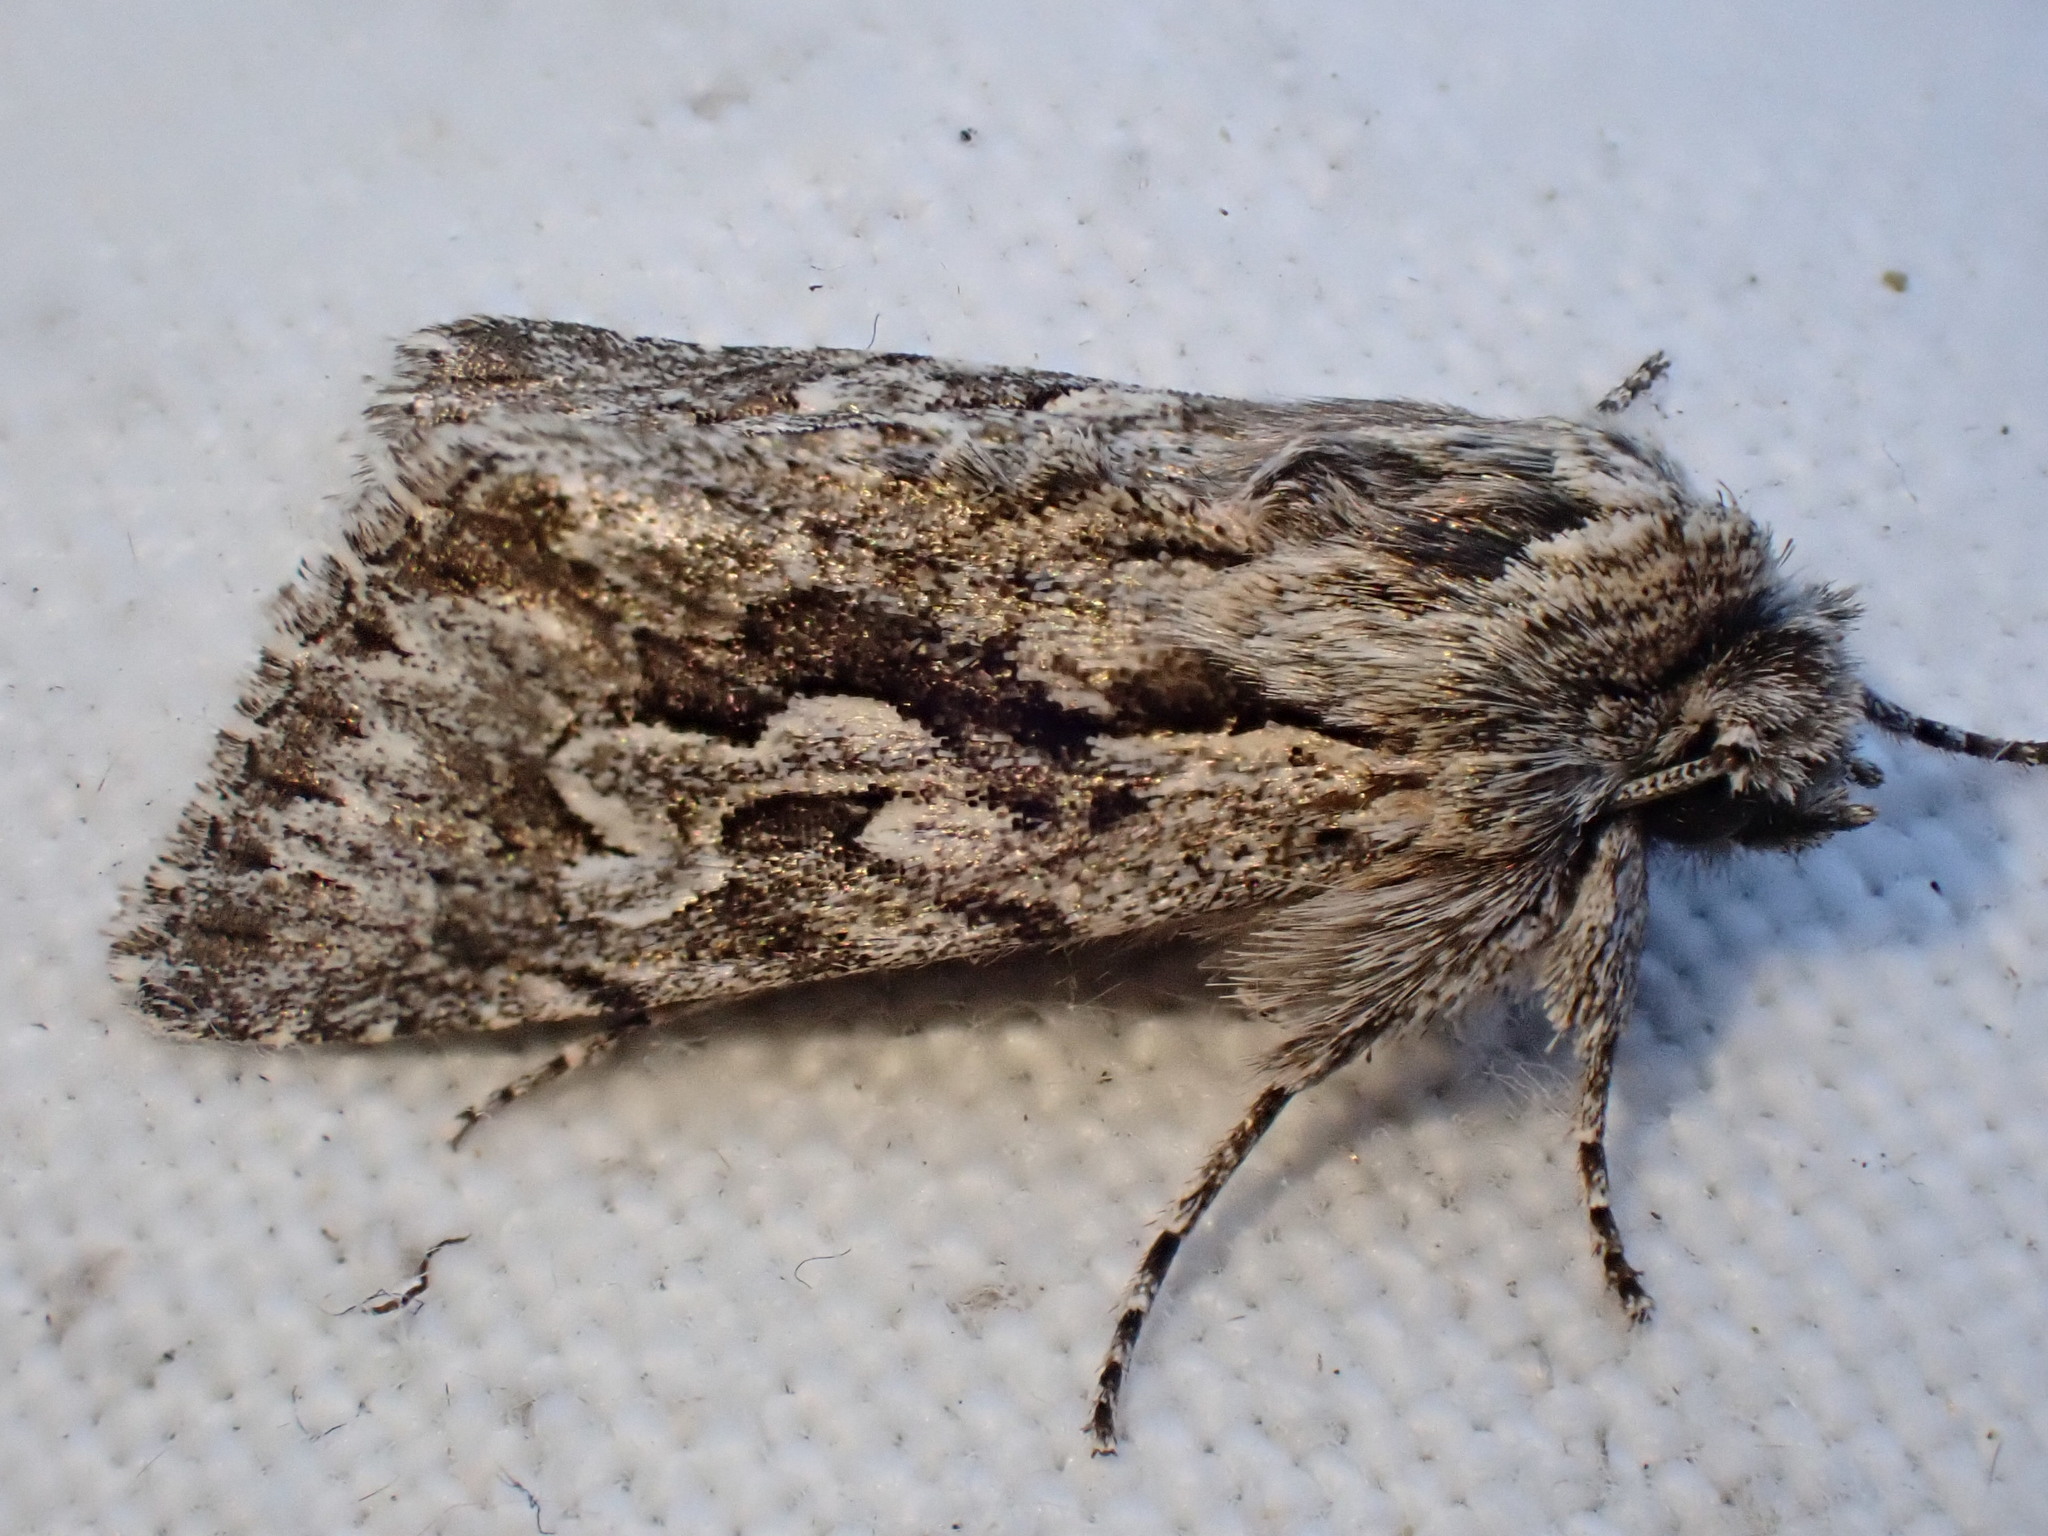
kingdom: Animalia
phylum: Arthropoda
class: Insecta
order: Lepidoptera
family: Noctuidae
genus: Xylocampa
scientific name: Xylocampa areola
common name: Early grey
